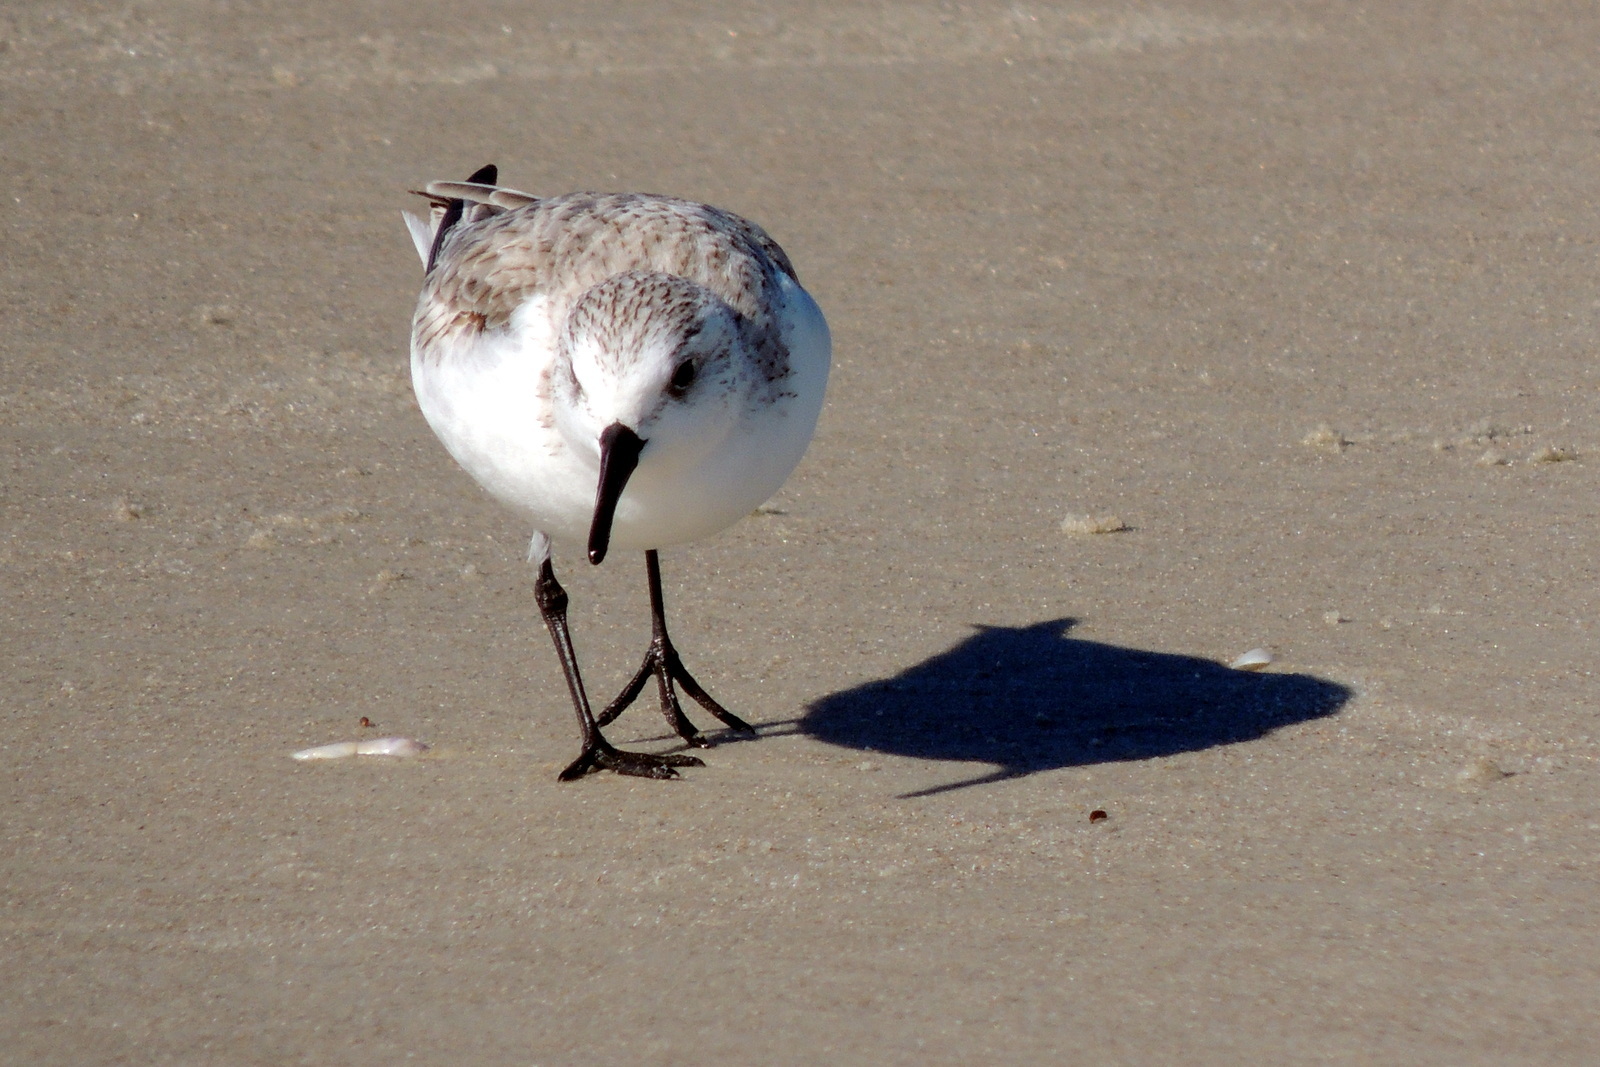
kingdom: Animalia
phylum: Chordata
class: Aves
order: Charadriiformes
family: Scolopacidae
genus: Calidris
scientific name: Calidris alba
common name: Sanderling
